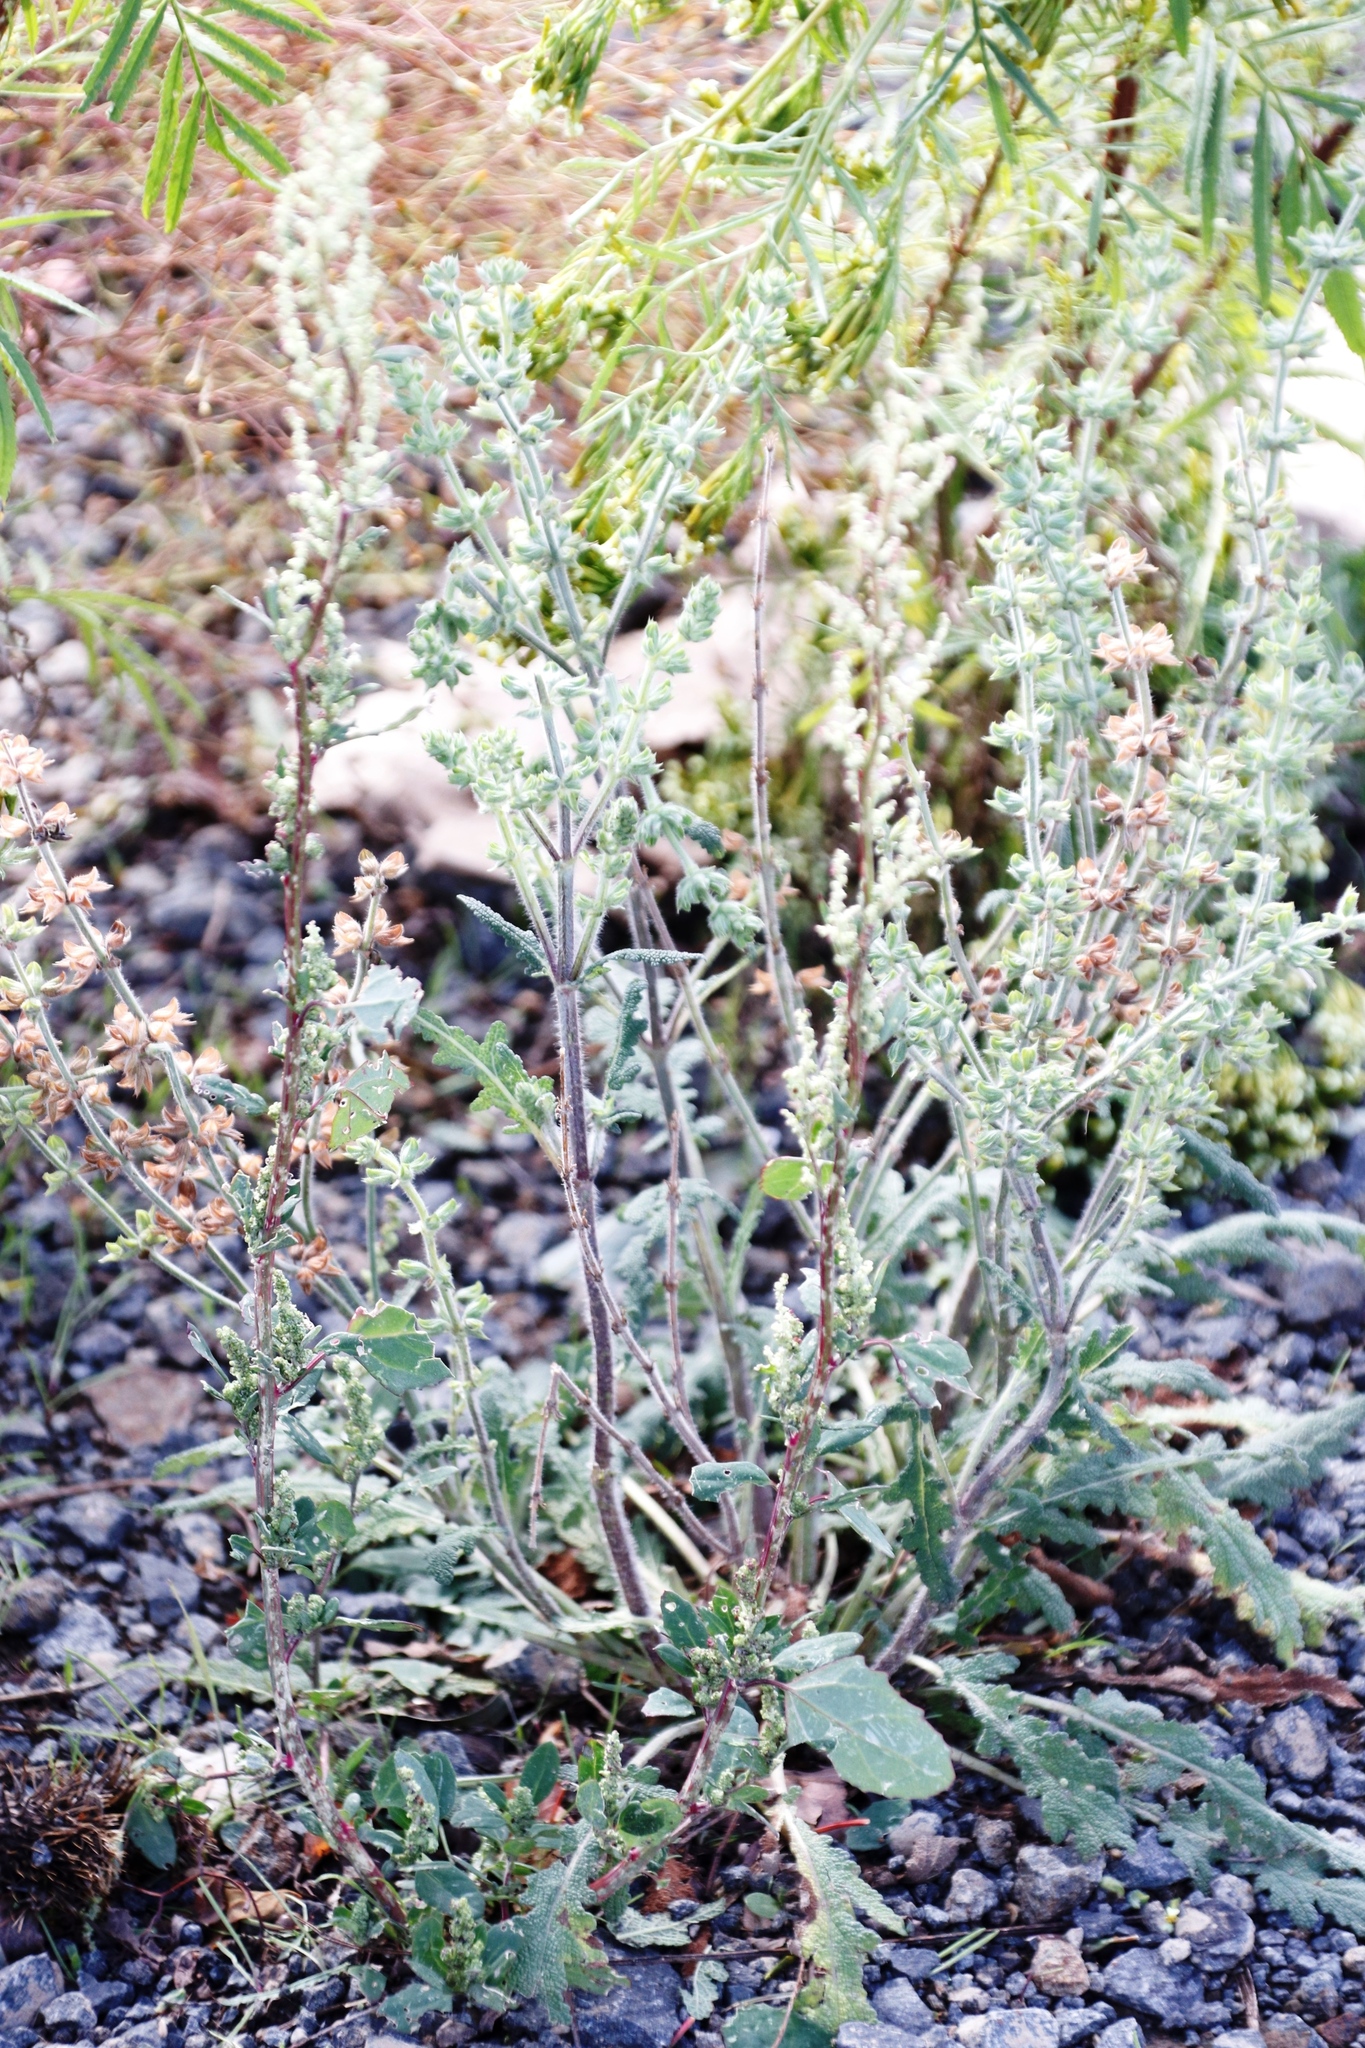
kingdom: Plantae
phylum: Tracheophyta
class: Magnoliopsida
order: Lamiales
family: Lamiaceae
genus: Salvia
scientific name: Salvia verbenaca
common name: Wild clary
